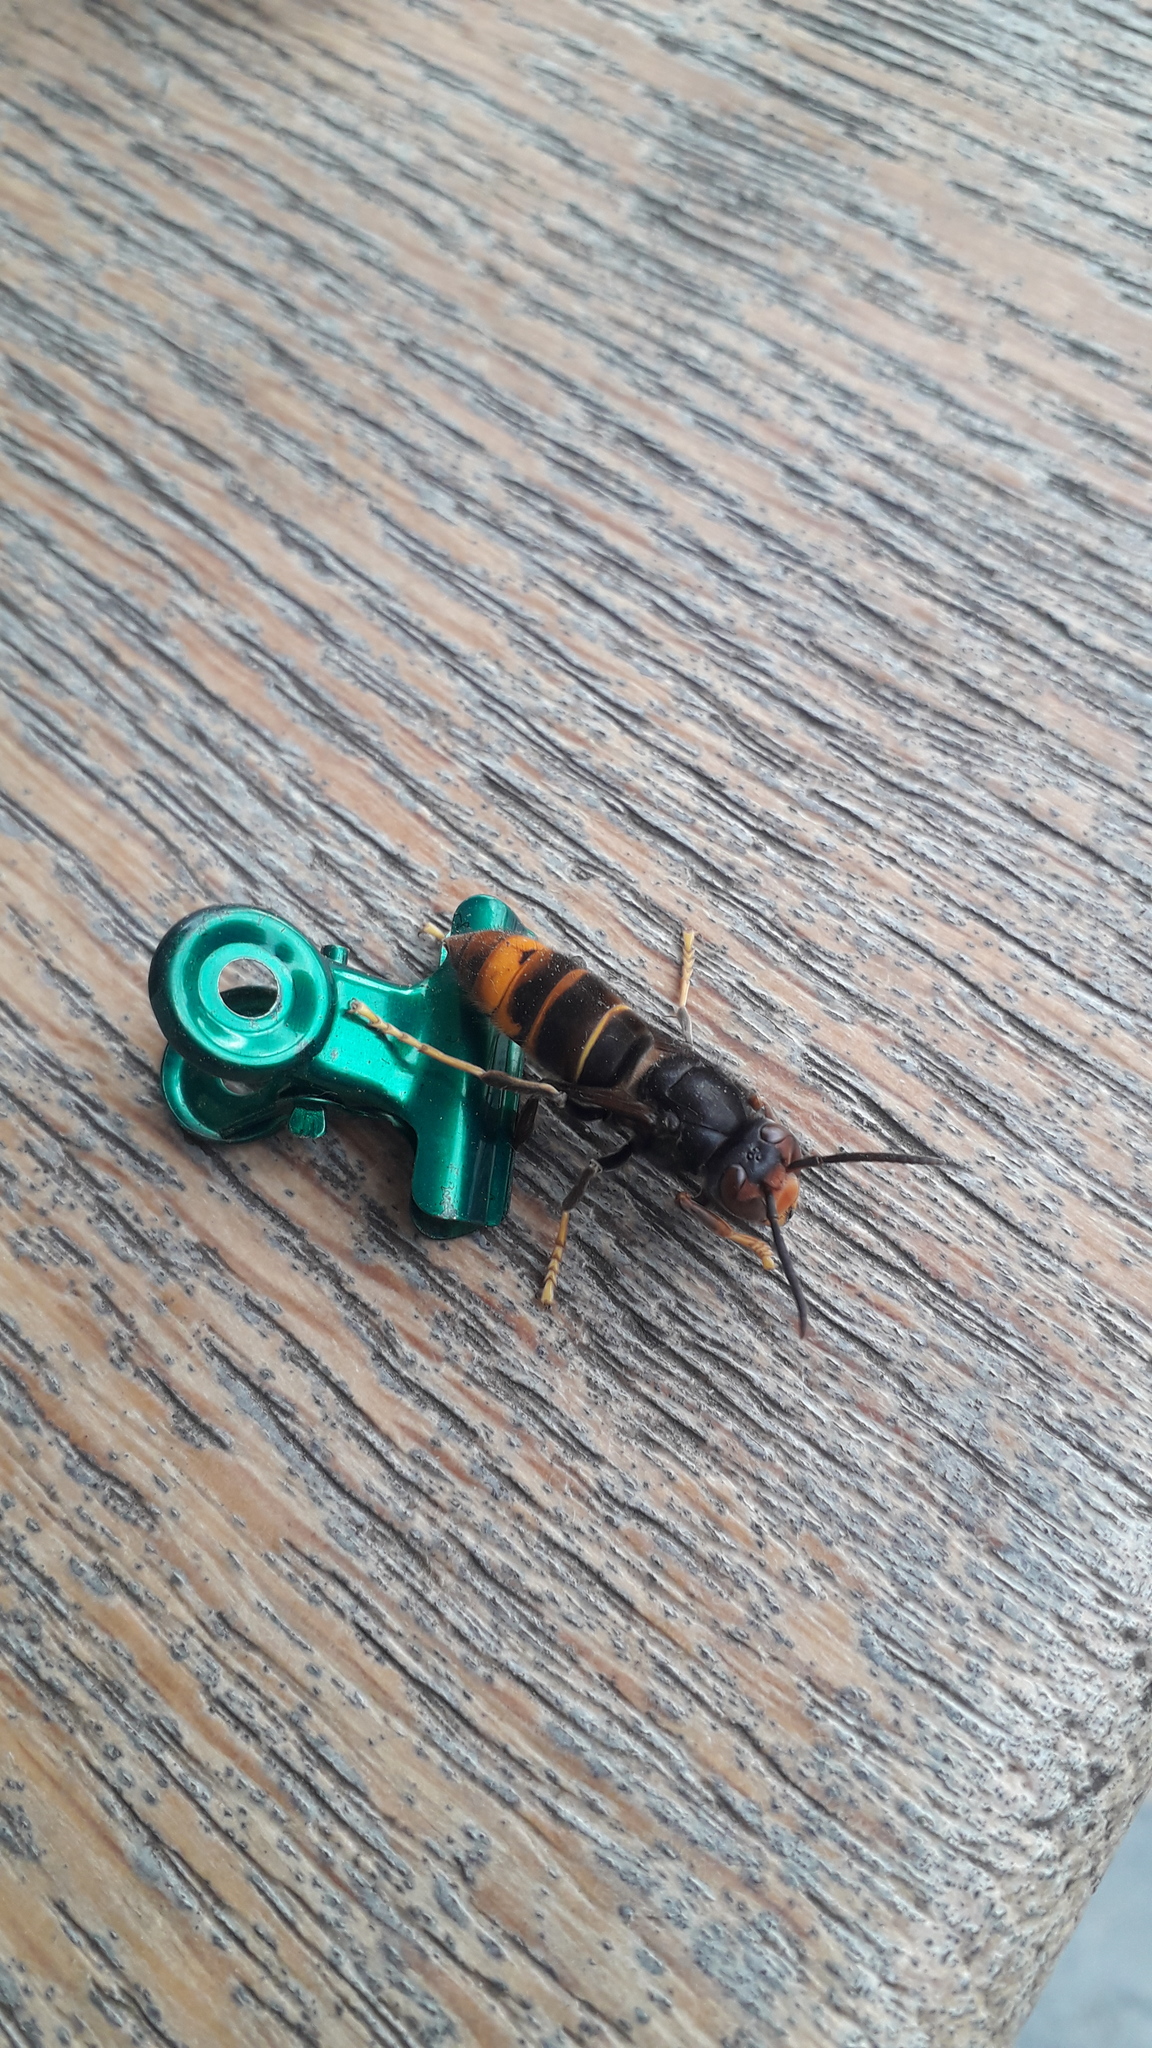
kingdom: Animalia
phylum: Arthropoda
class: Insecta
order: Hymenoptera
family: Vespidae
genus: Vespa
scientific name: Vespa velutina
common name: Asian hornet
